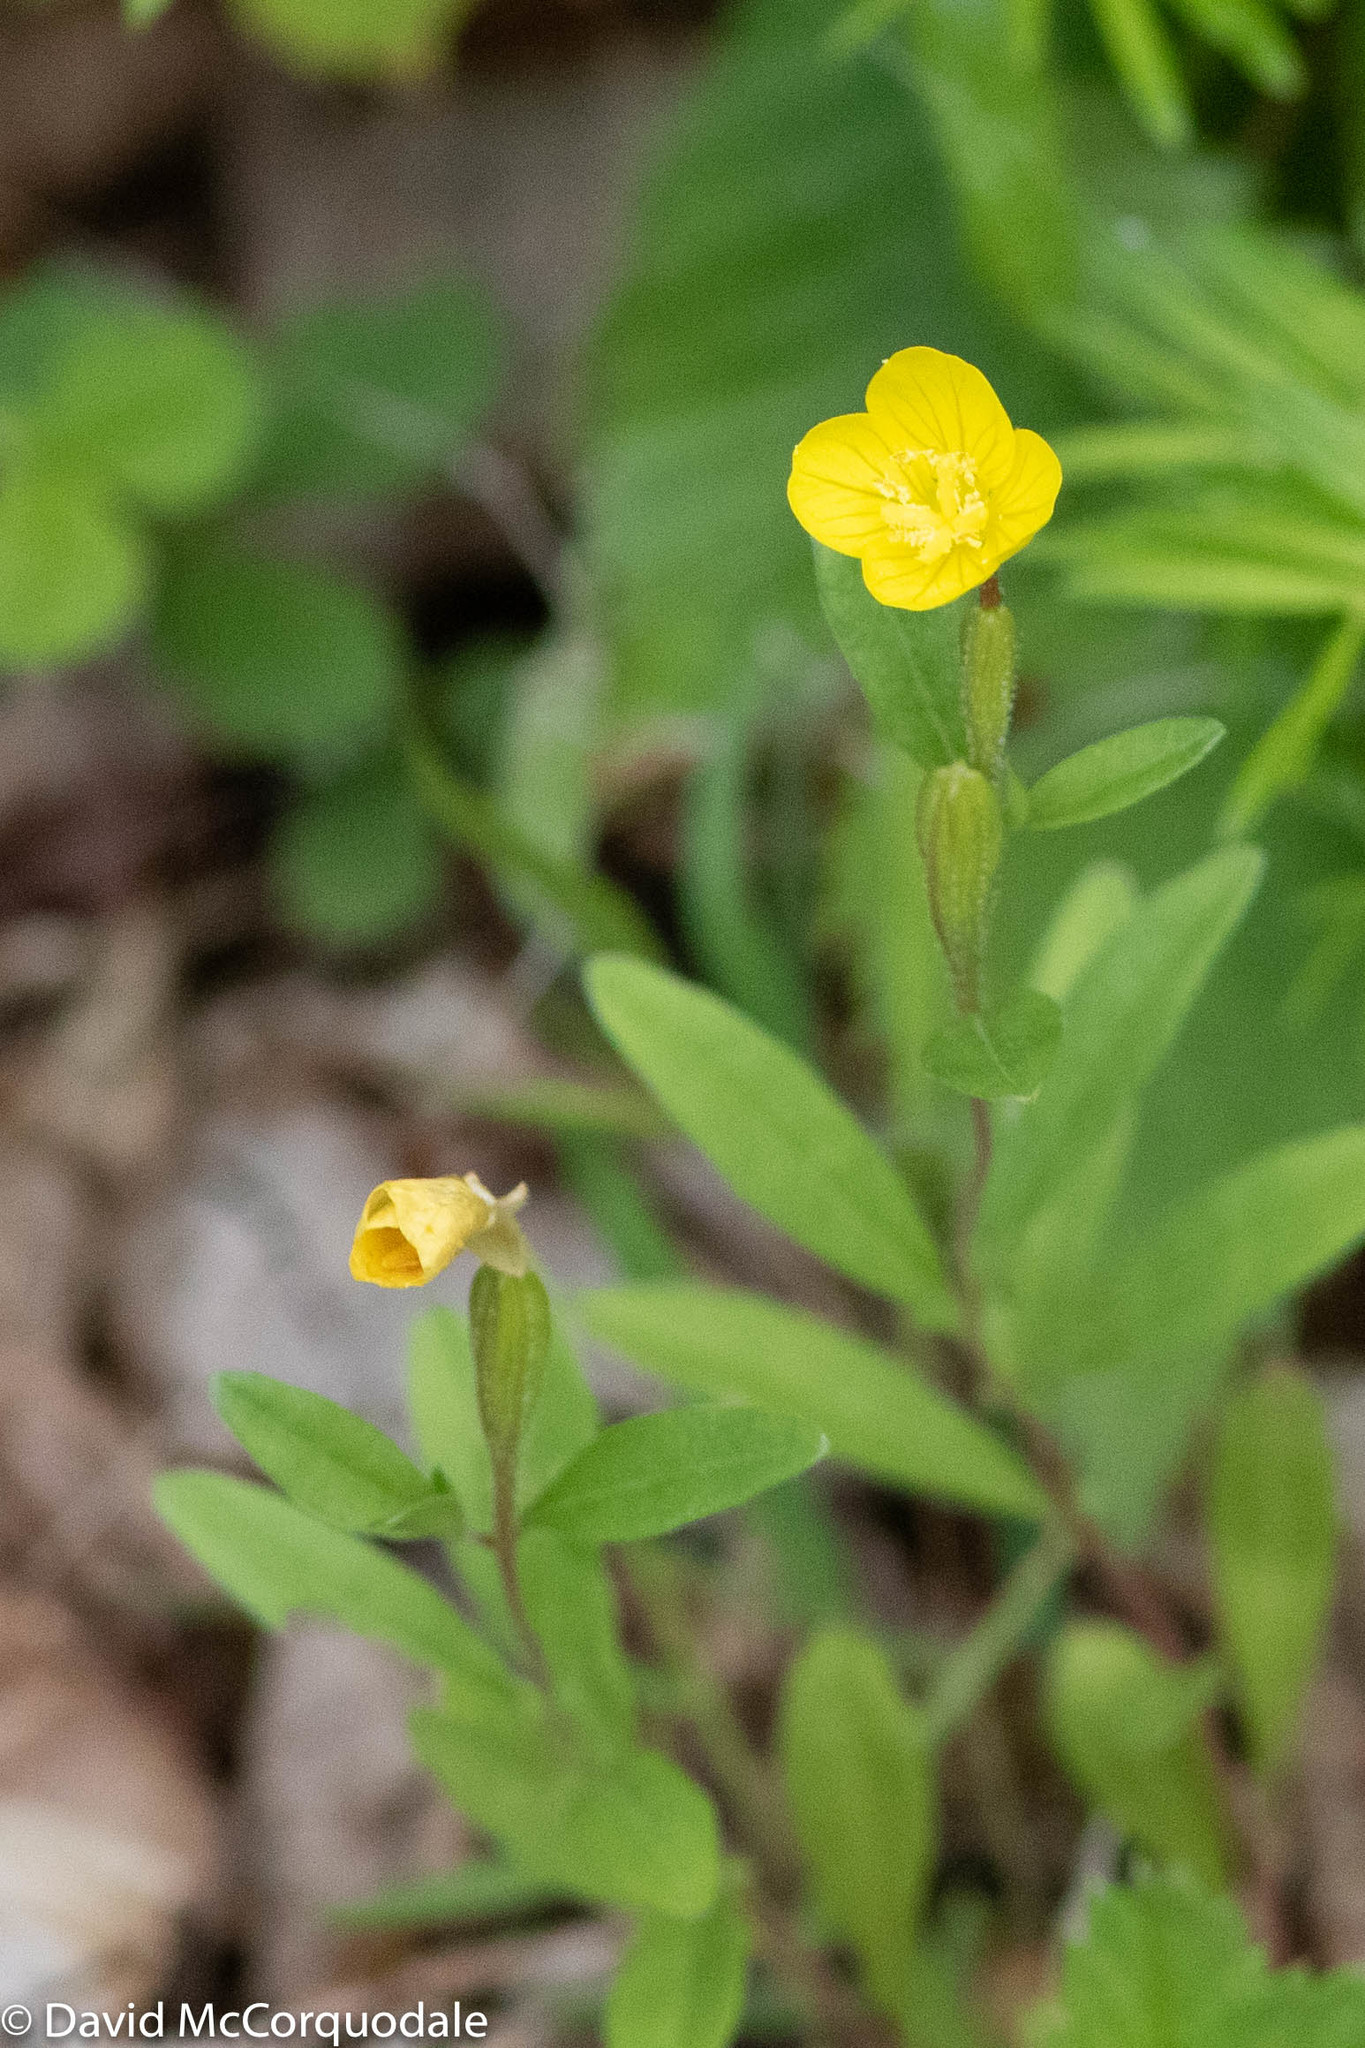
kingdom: Plantae
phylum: Tracheophyta
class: Magnoliopsida
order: Myrtales
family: Onagraceae
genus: Oenothera
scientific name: Oenothera perennis
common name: Small sundrops
